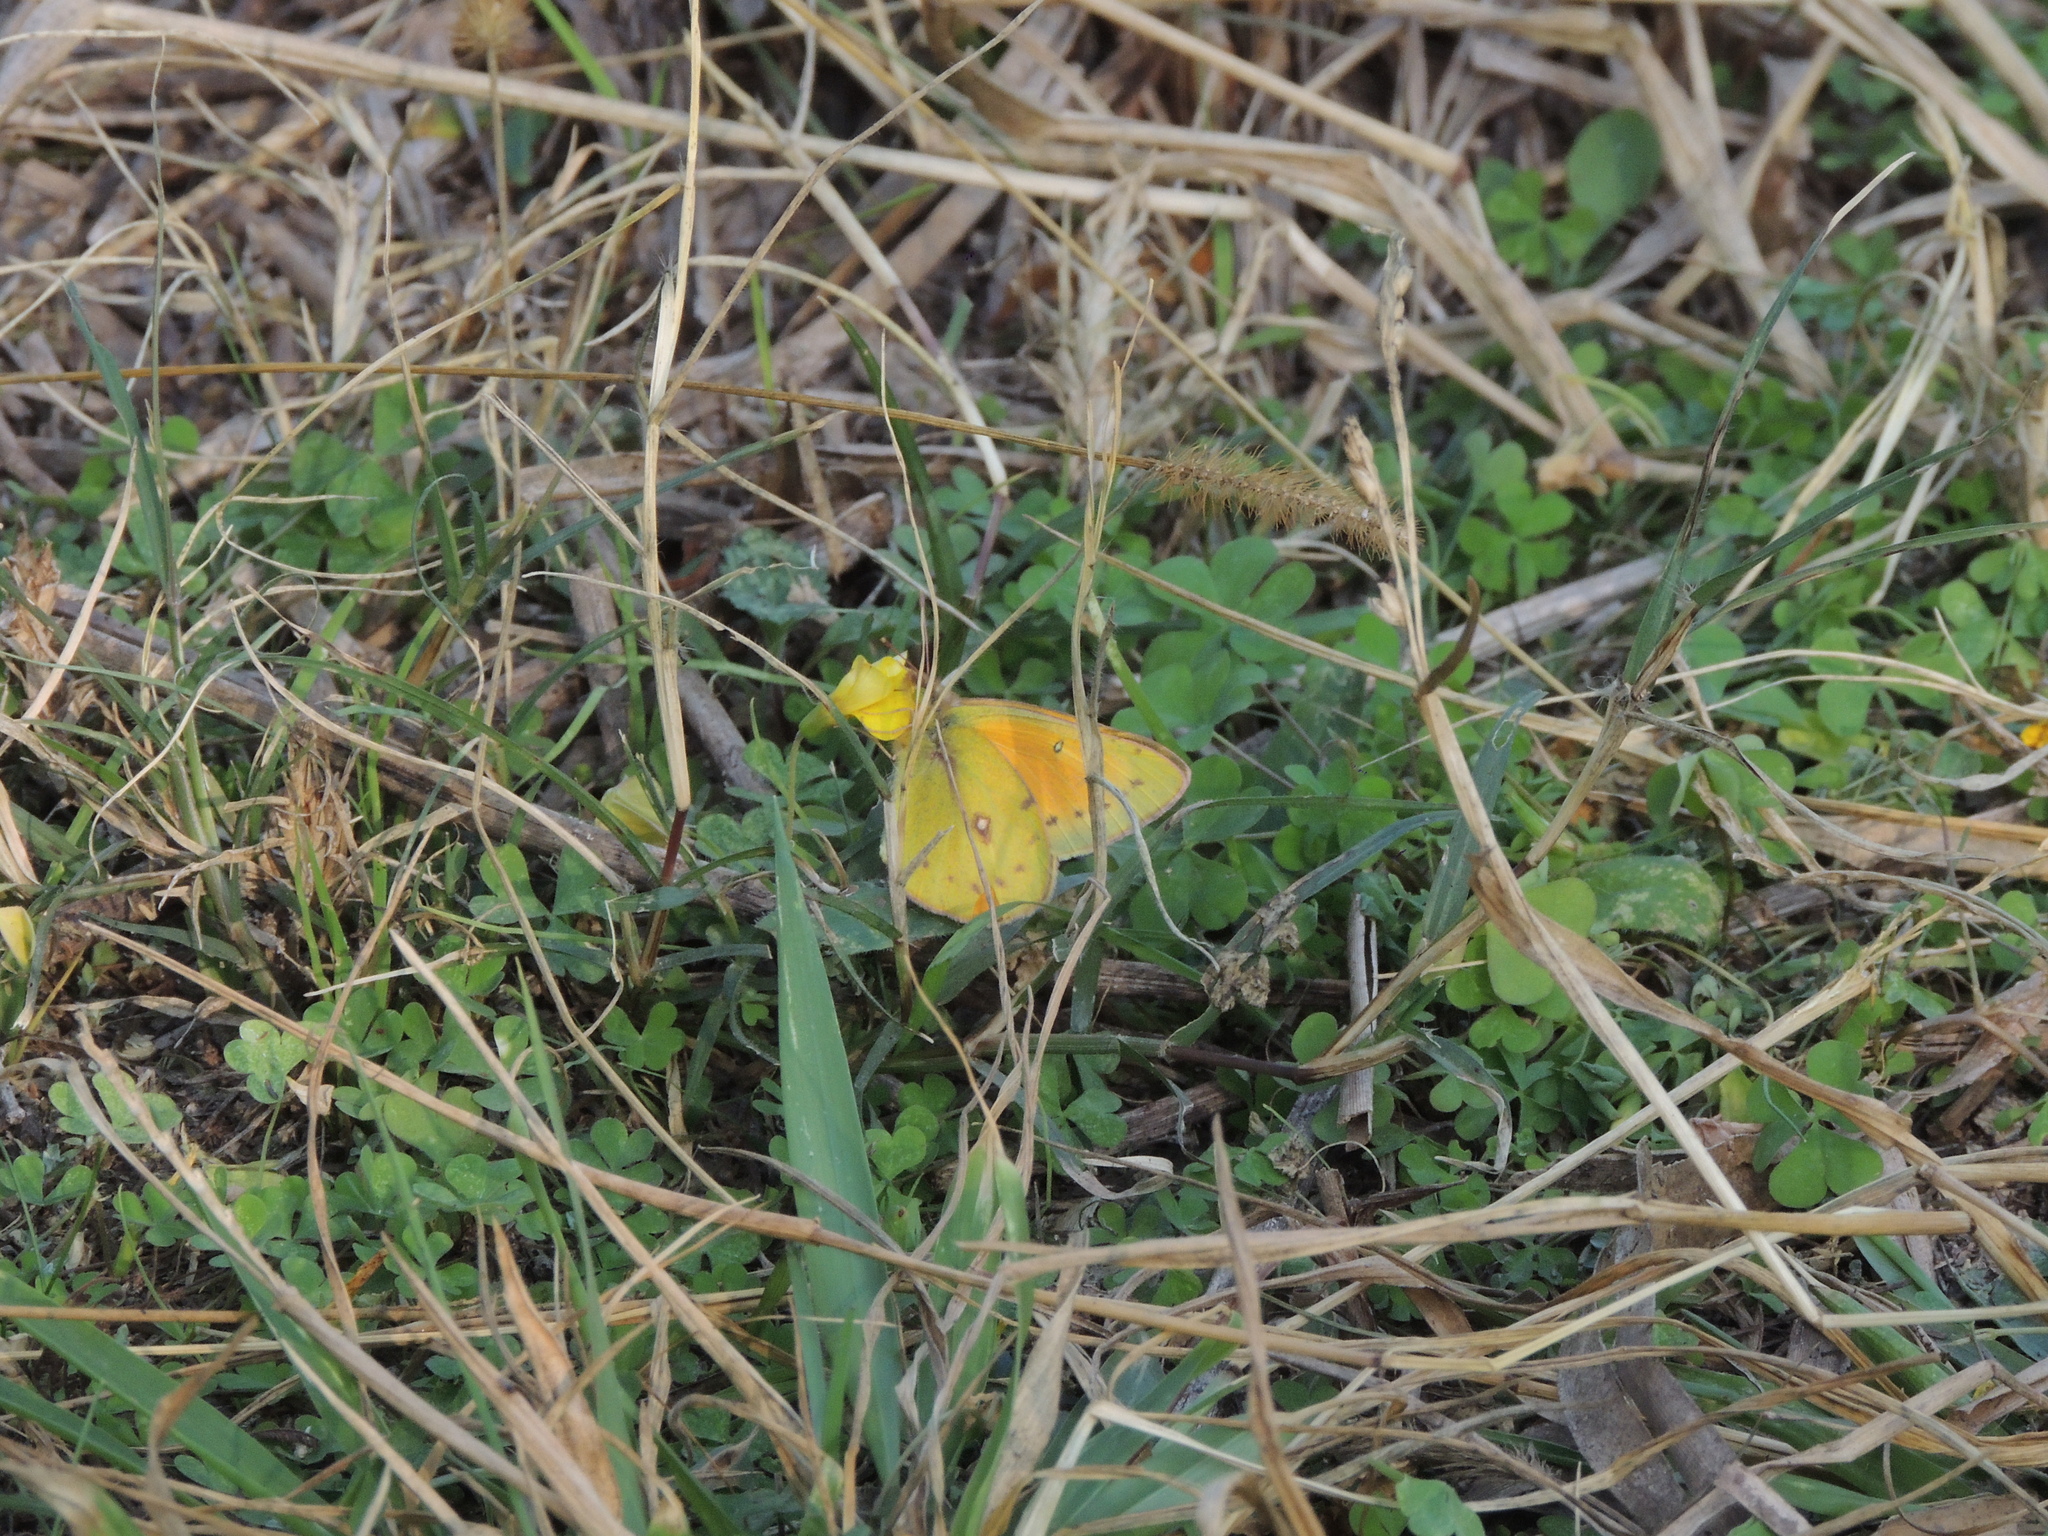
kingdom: Animalia
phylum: Arthropoda
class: Insecta
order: Lepidoptera
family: Pieridae
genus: Colias
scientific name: Colias lesbia
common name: Lesbia clouded yellow
